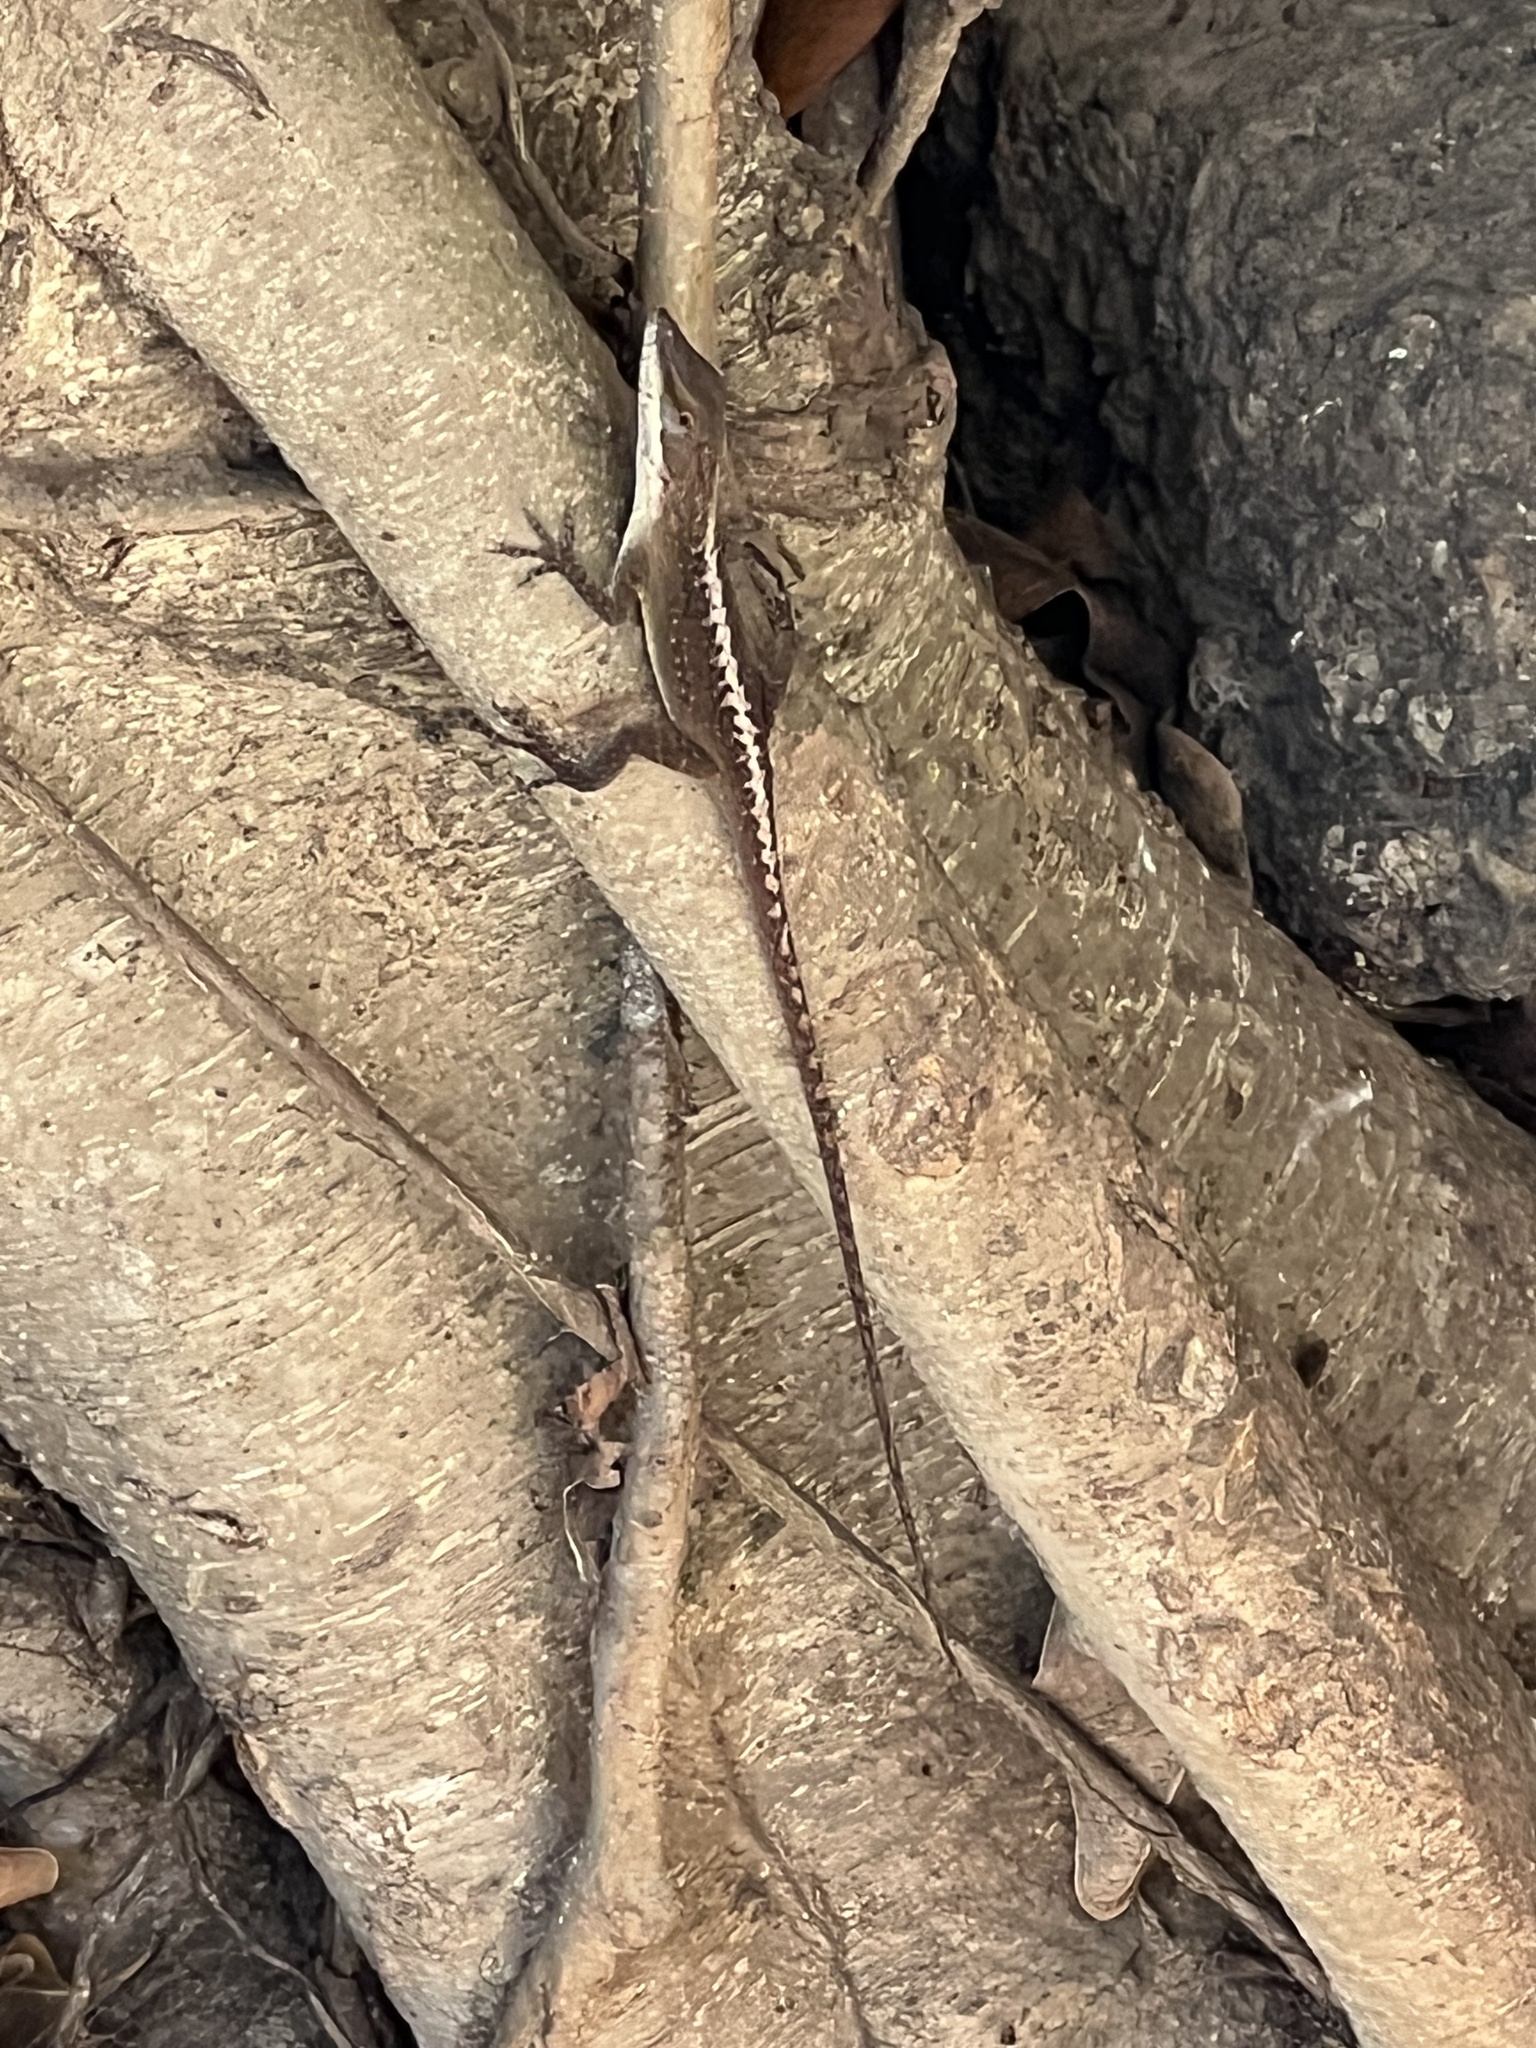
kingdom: Animalia
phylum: Chordata
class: Squamata
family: Dactyloidae
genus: Anolis
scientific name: Anolis carolinensis
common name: Green anole
